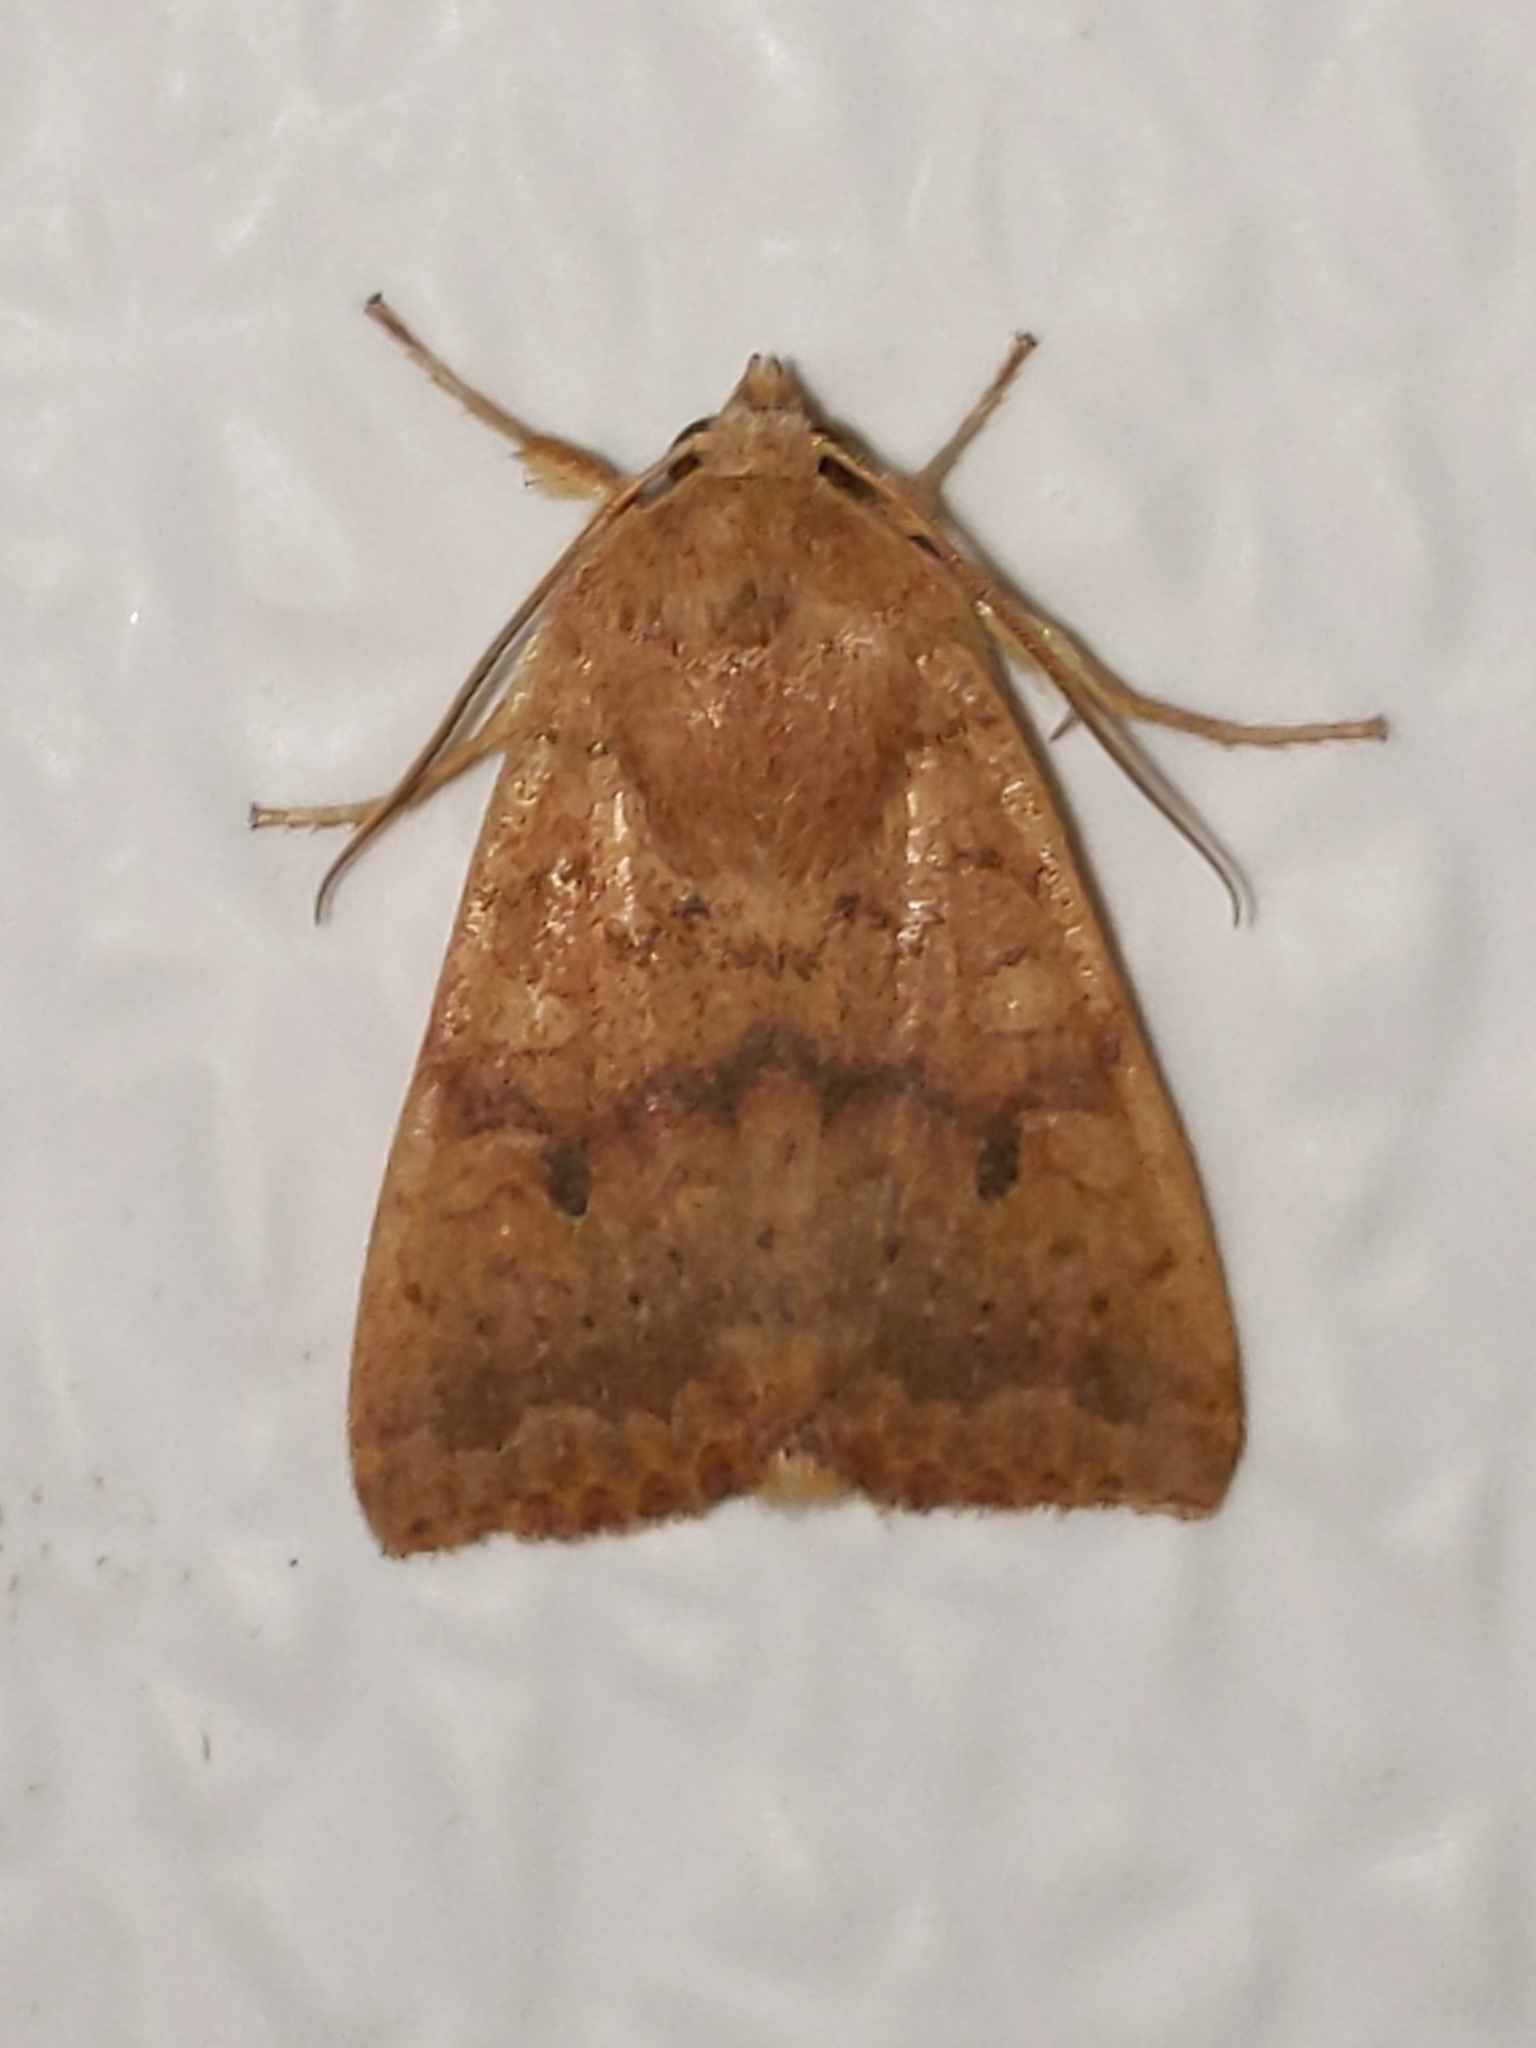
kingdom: Animalia
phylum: Arthropoda
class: Insecta
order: Lepidoptera
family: Noctuidae
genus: Agrochola
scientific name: Agrochola bicolorago
